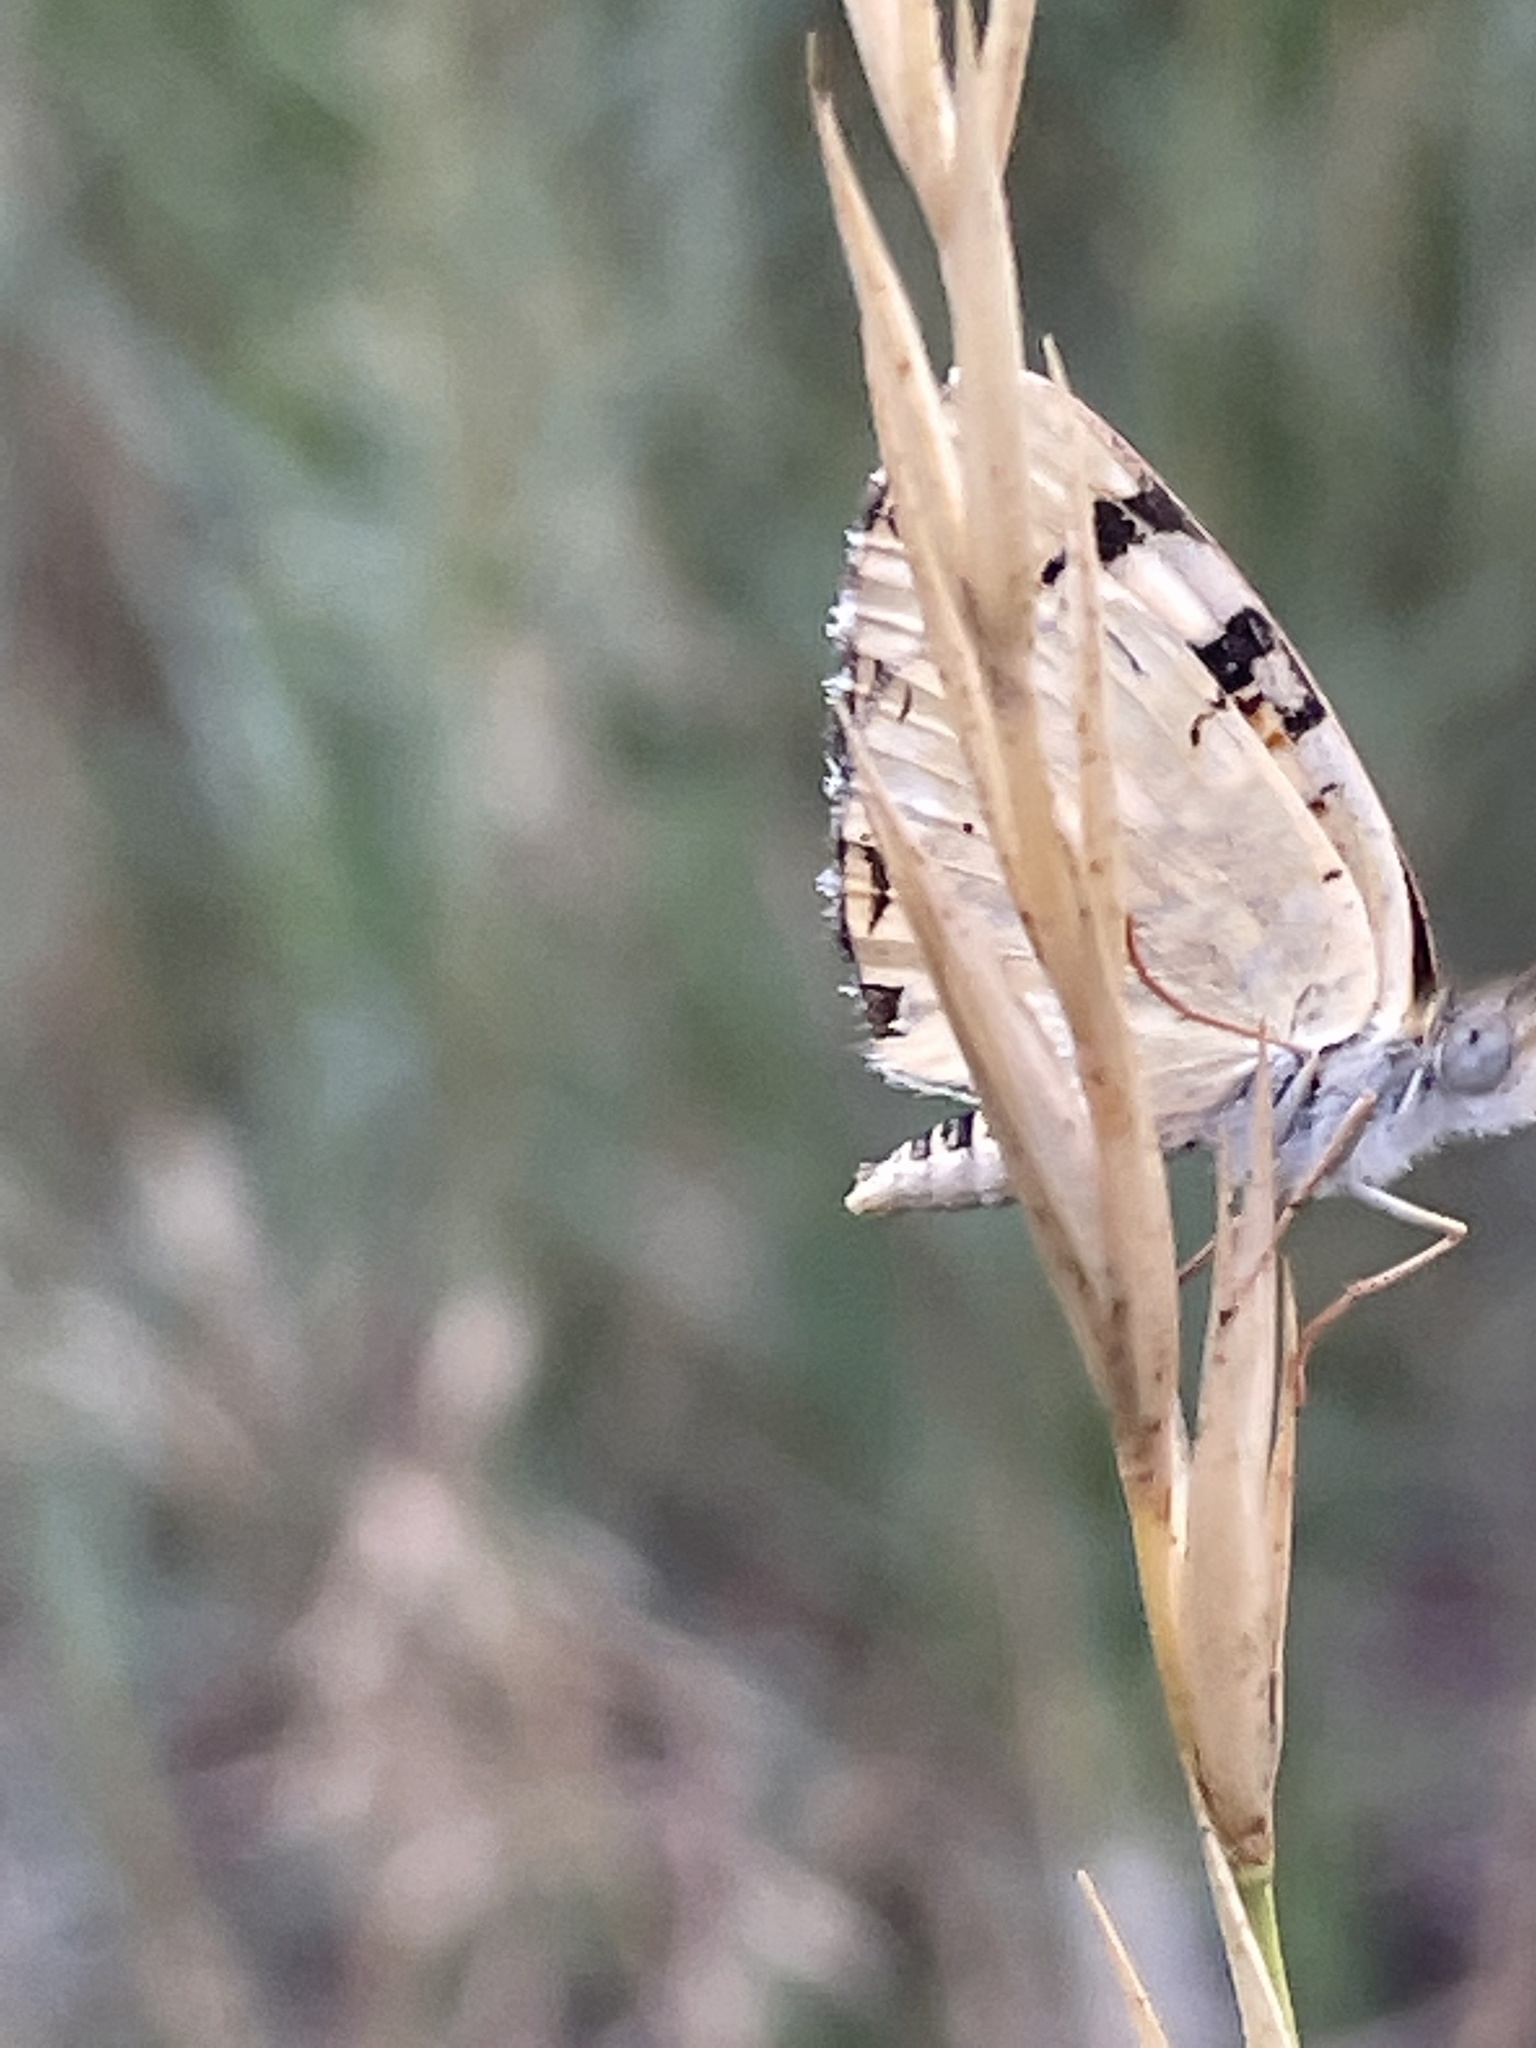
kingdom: Animalia
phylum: Arthropoda
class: Insecta
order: Lepidoptera
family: Nymphalidae
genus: Phyciodes
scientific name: Phyciodes picta
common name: Painted crescent
